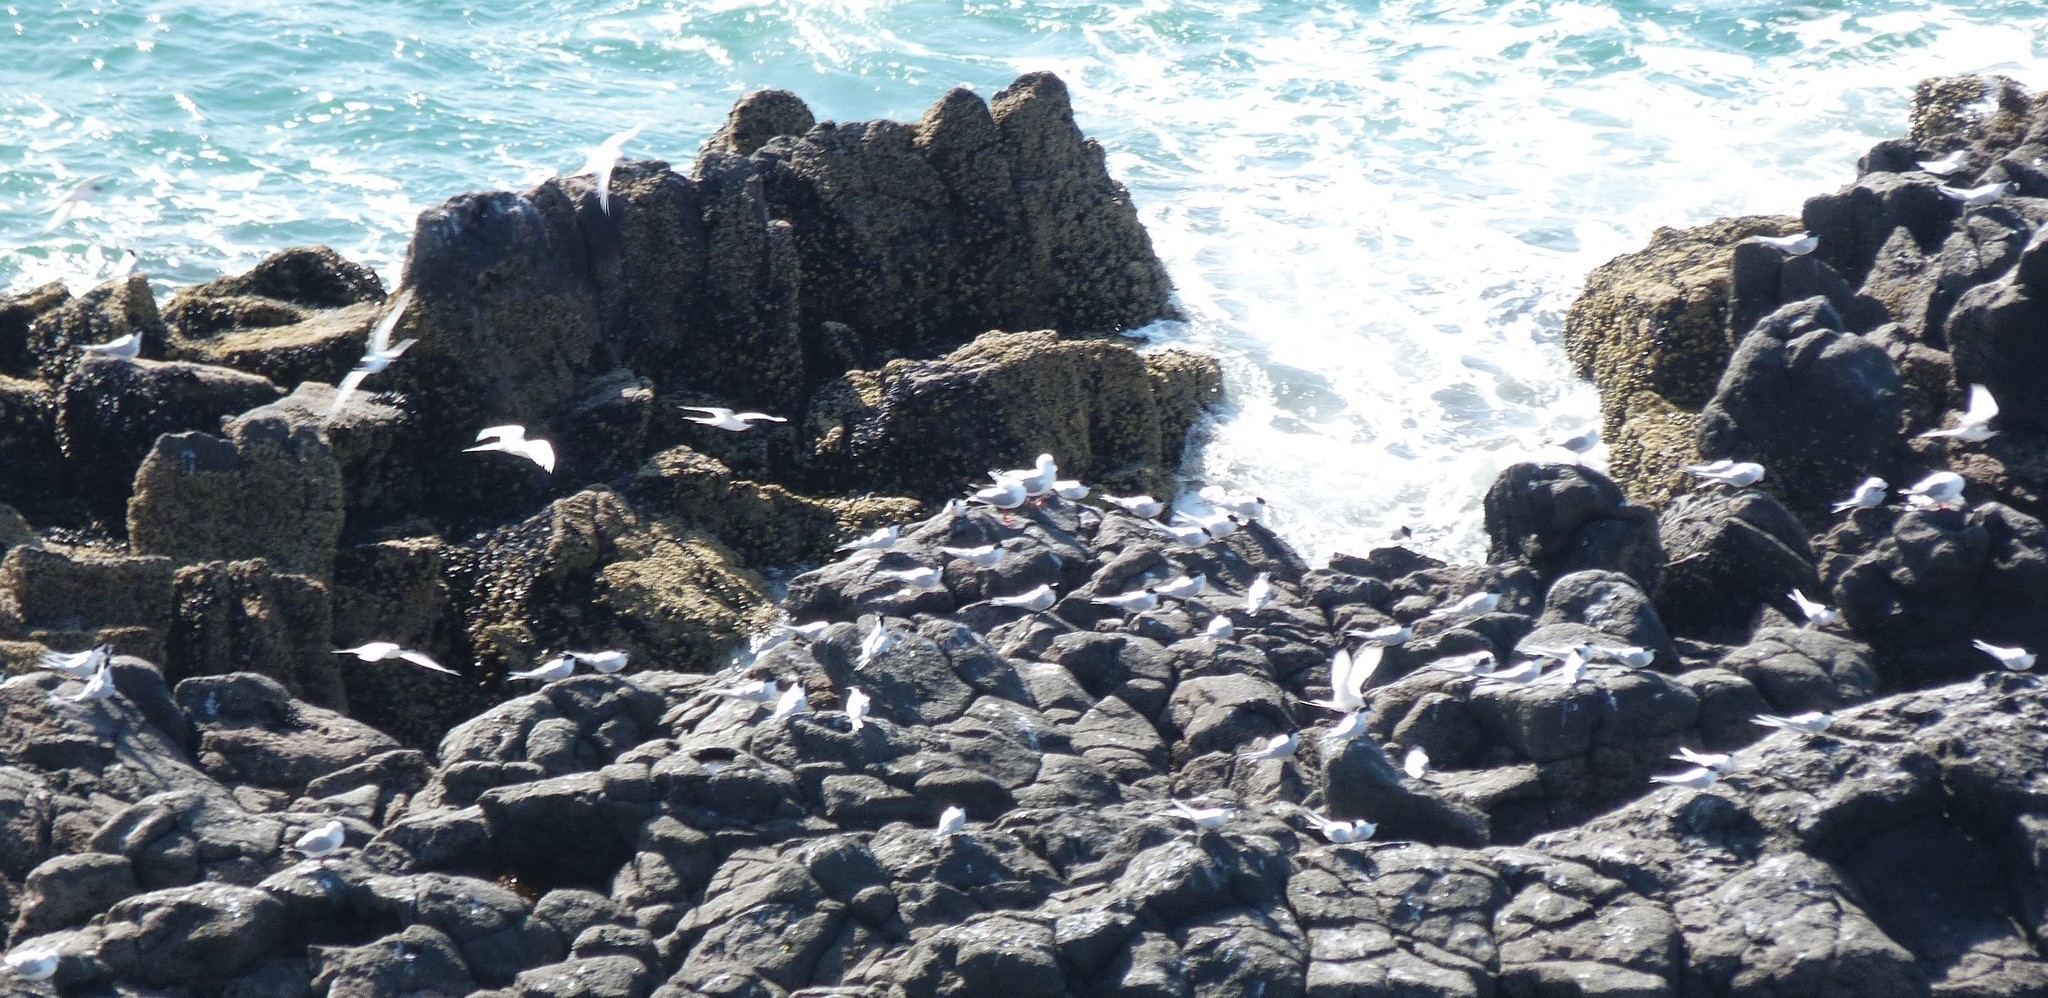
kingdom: Animalia
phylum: Chordata
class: Aves
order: Charadriiformes
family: Laridae
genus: Sterna
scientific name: Sterna striata
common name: White-fronted tern
